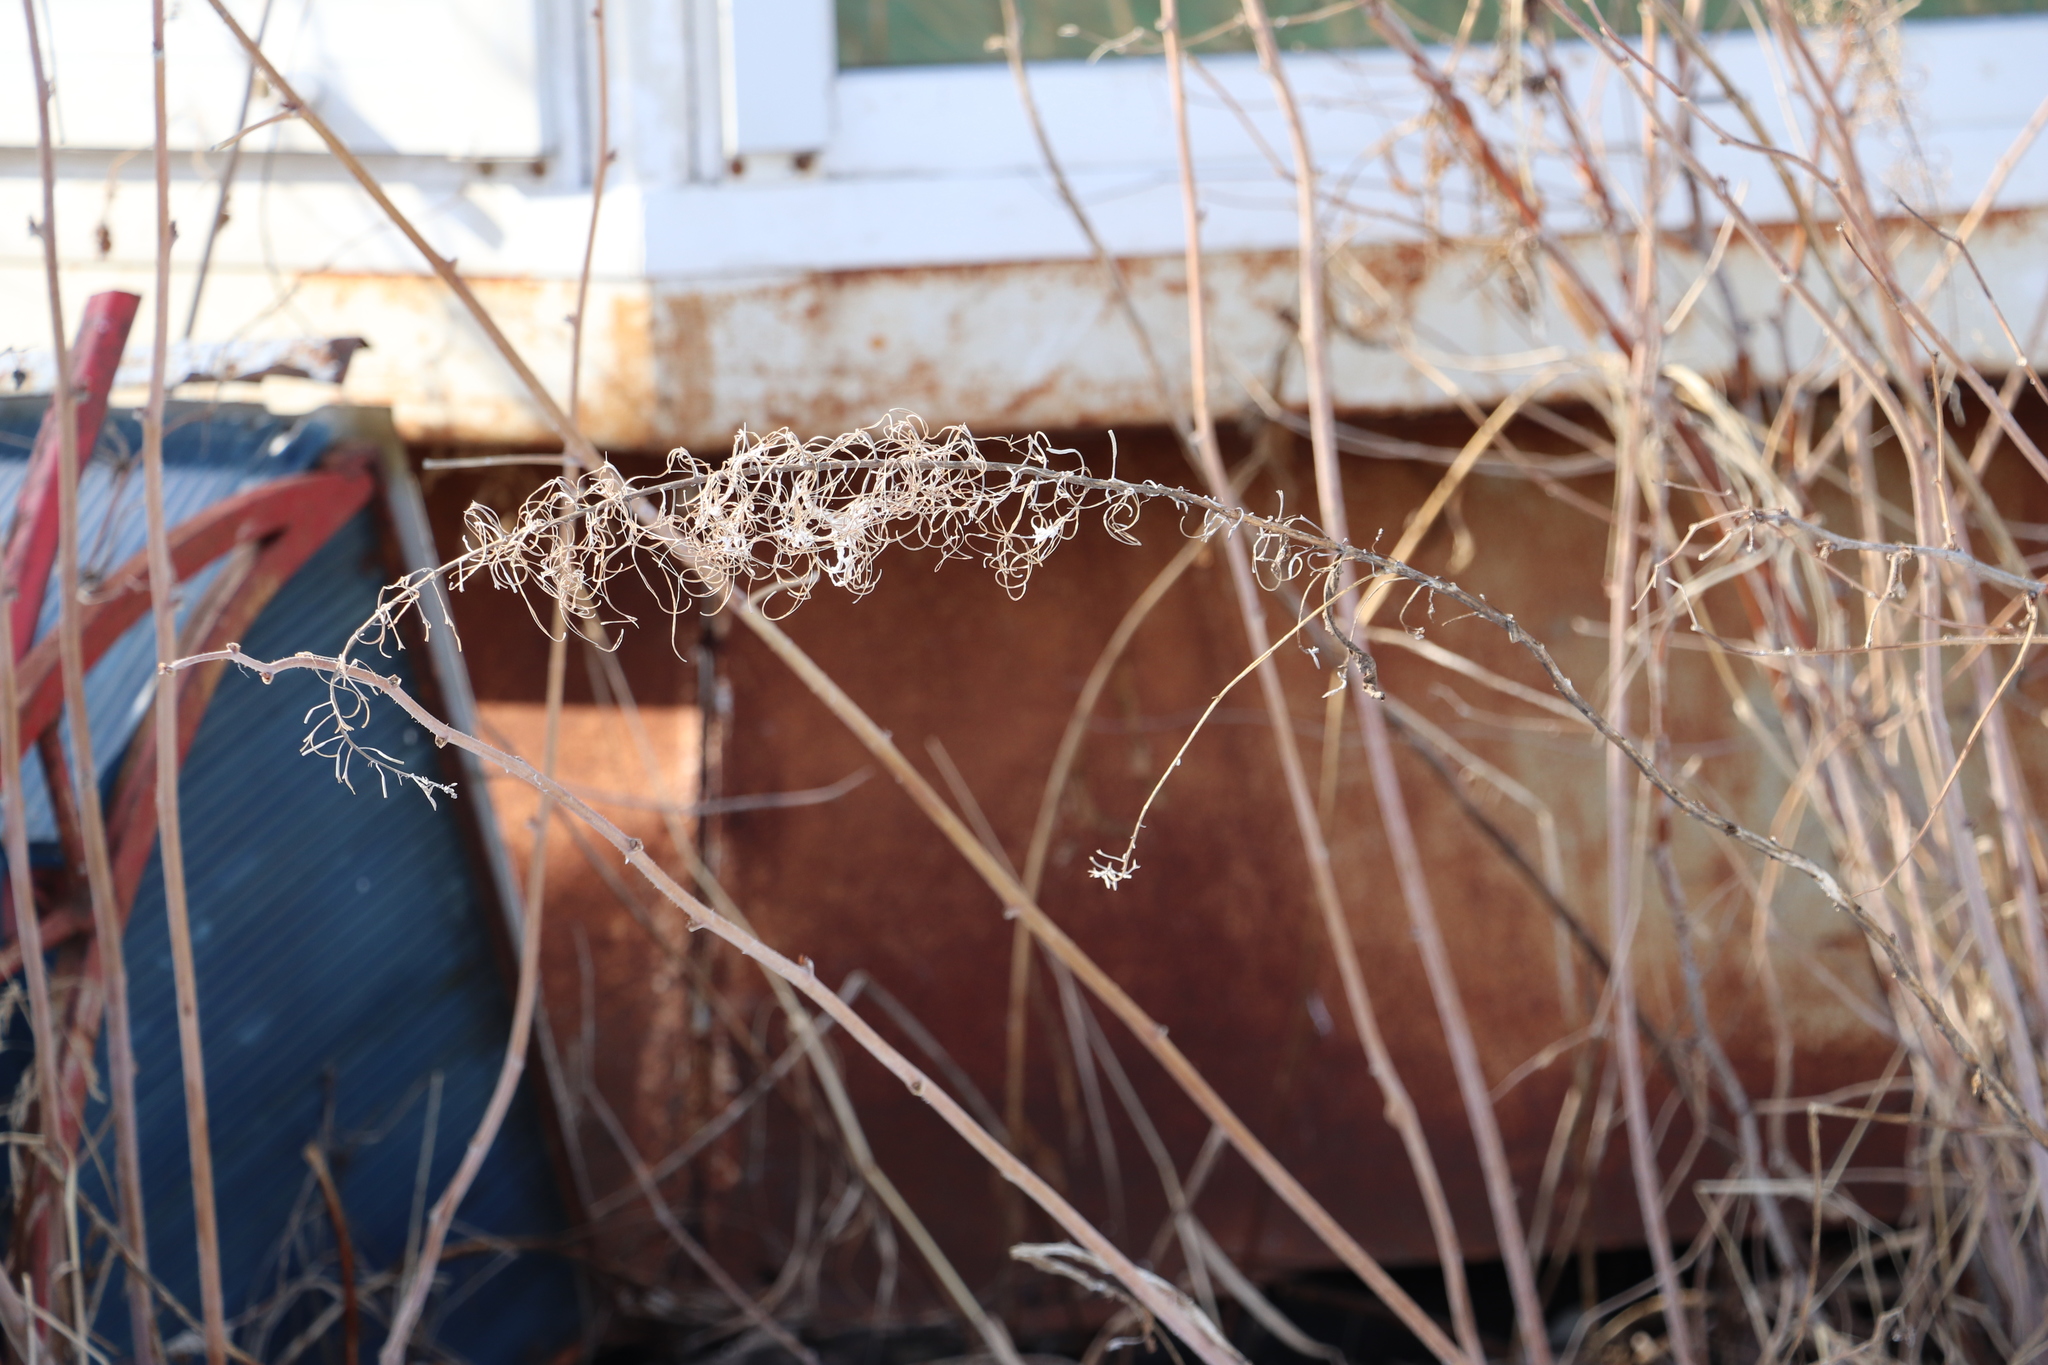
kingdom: Plantae
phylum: Tracheophyta
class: Magnoliopsida
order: Myrtales
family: Onagraceae
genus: Chamaenerion
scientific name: Chamaenerion angustifolium
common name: Fireweed
